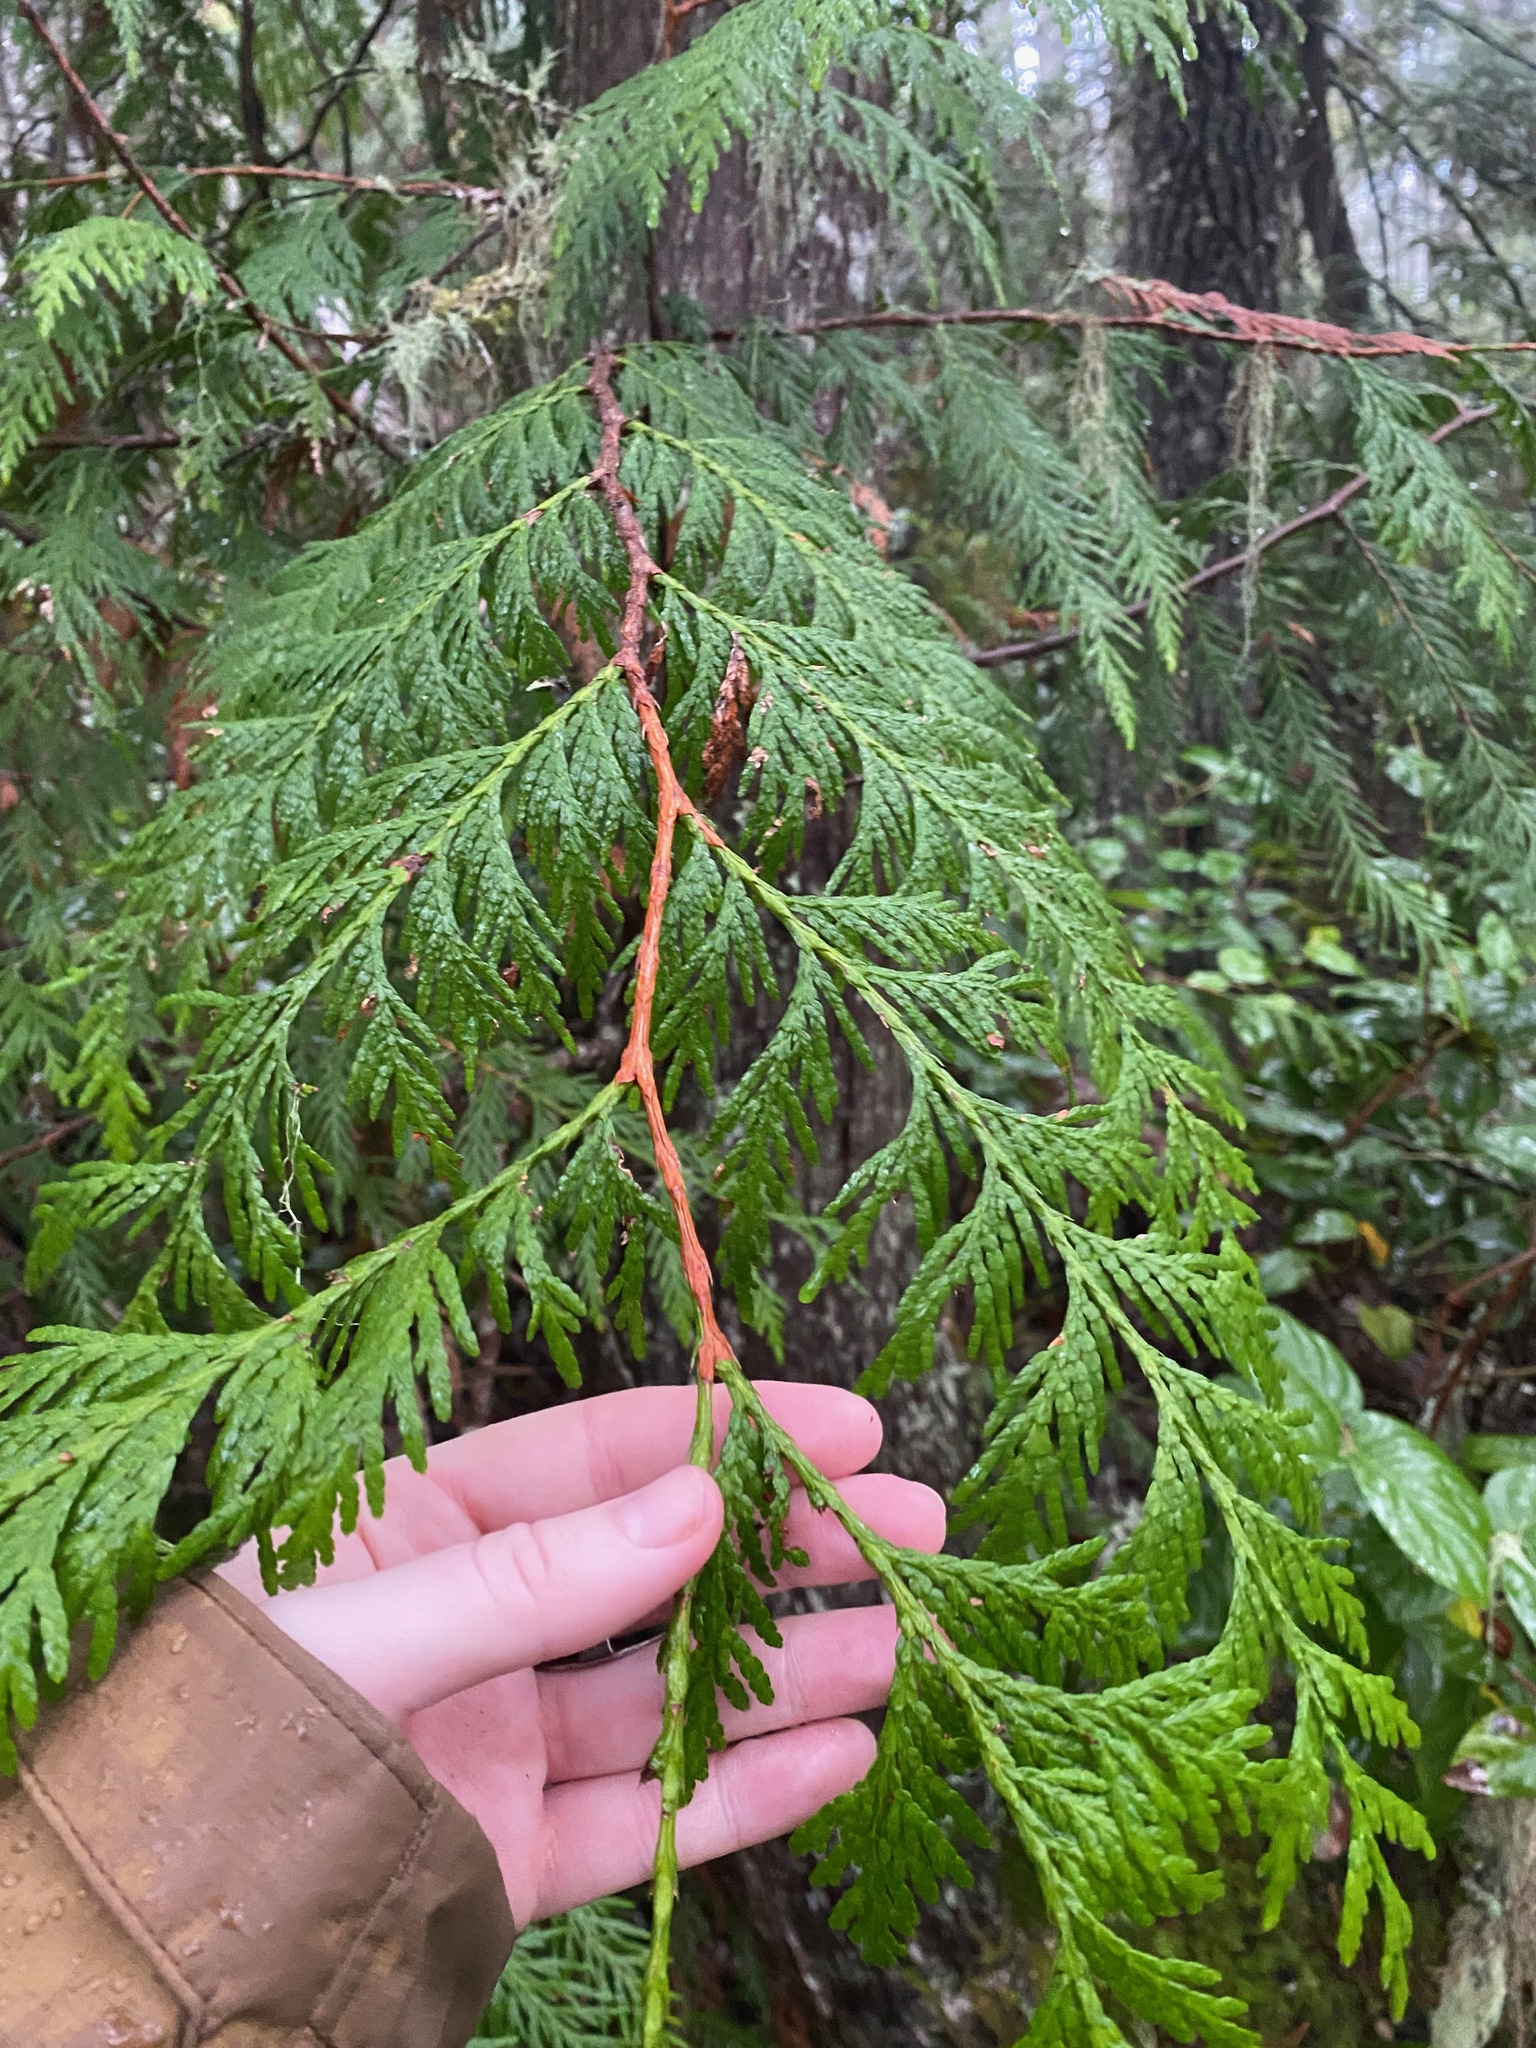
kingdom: Plantae
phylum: Tracheophyta
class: Pinopsida
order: Pinales
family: Cupressaceae
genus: Thuja
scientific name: Thuja plicata
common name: Western red-cedar
